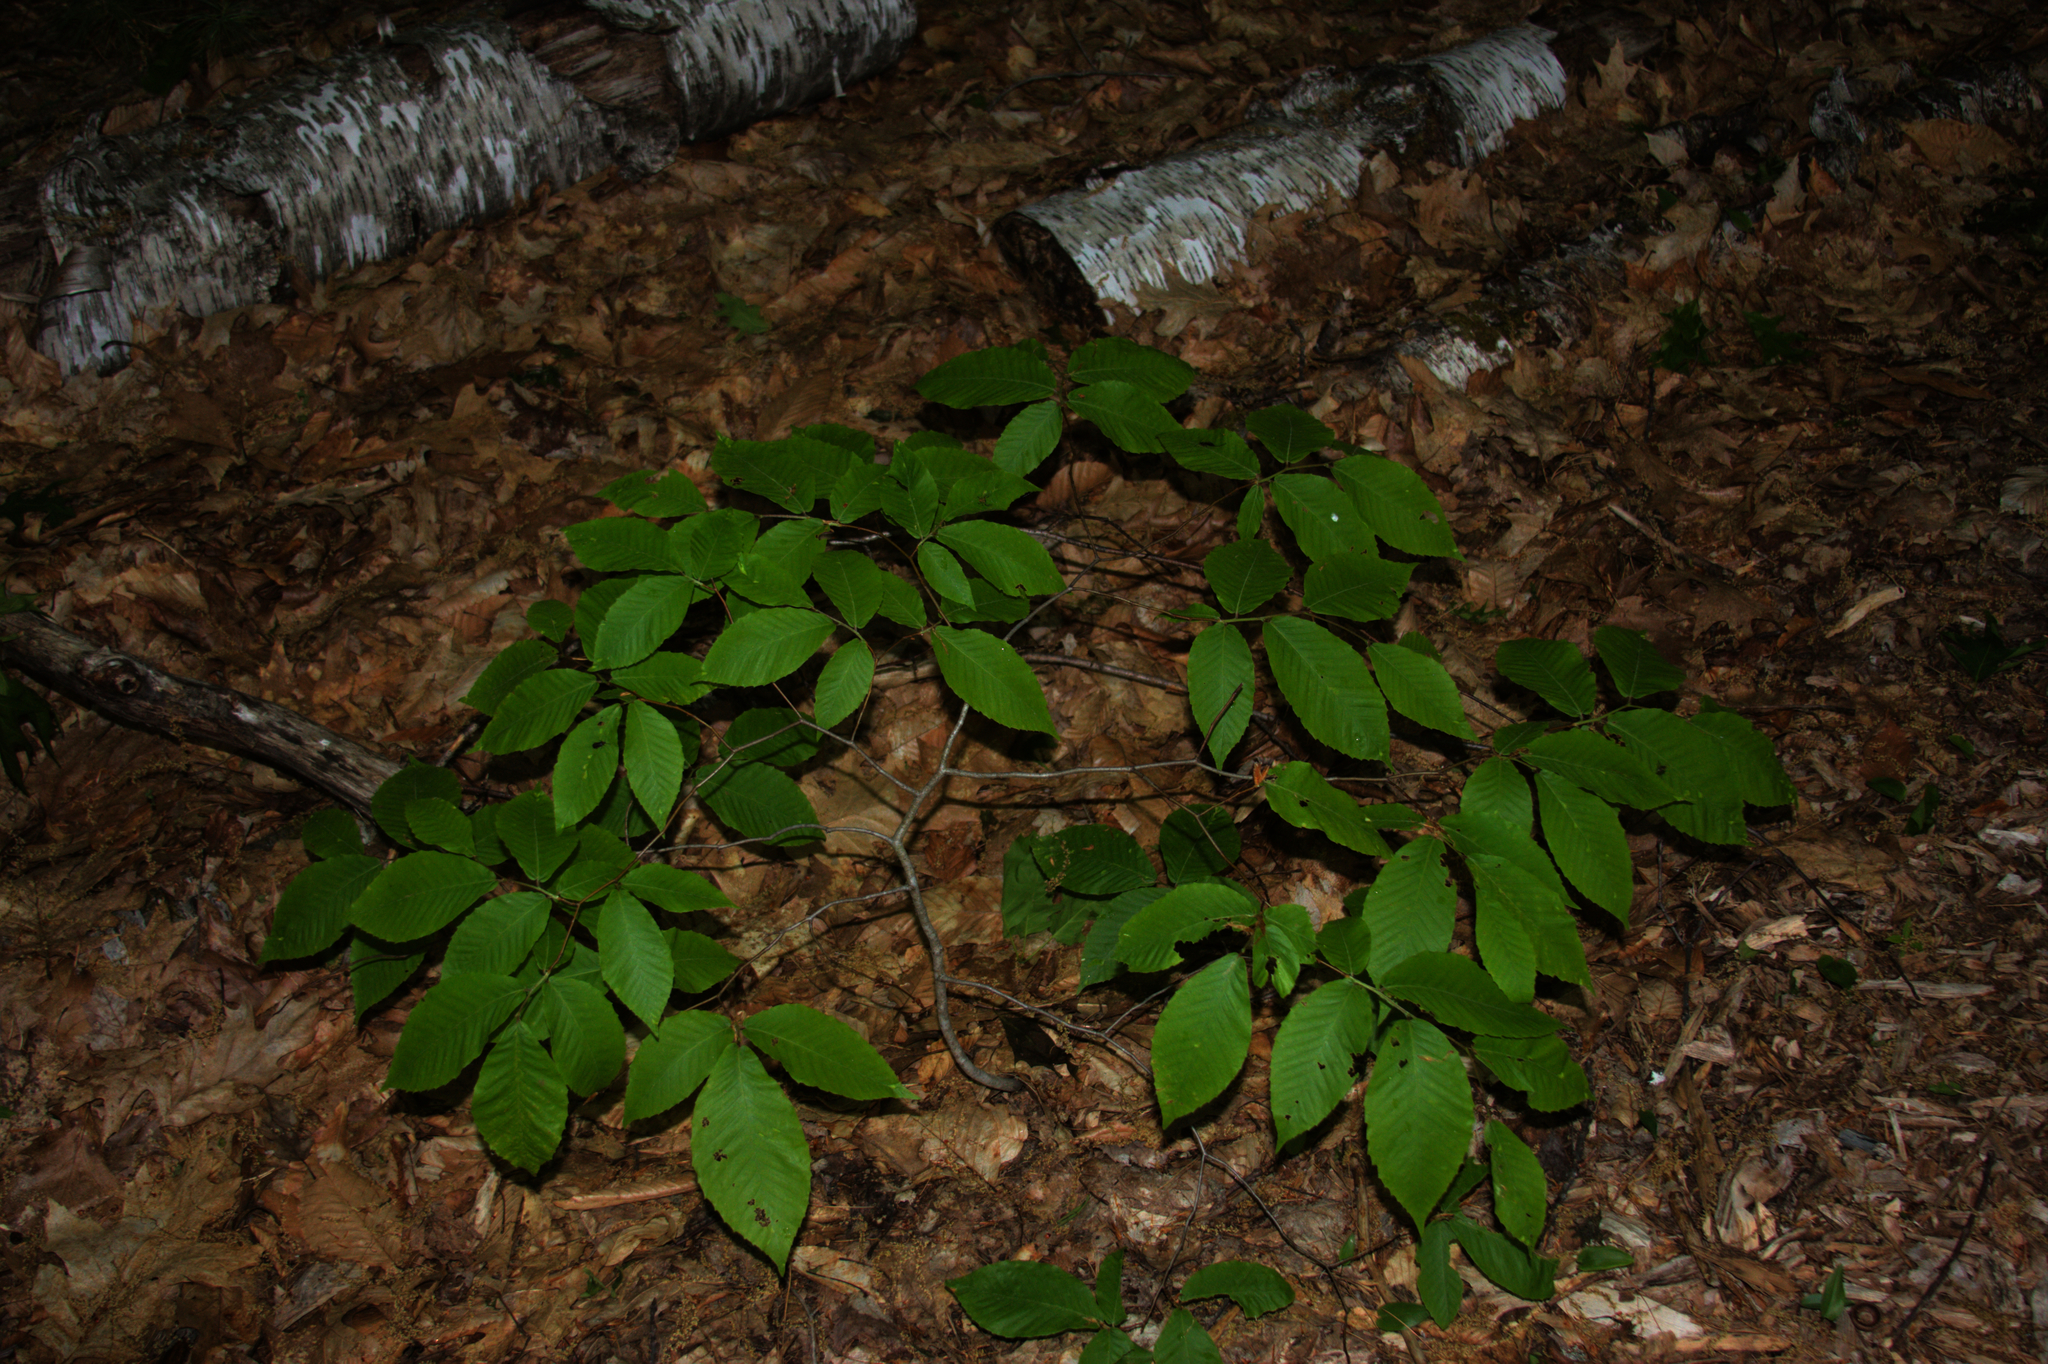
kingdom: Plantae
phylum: Tracheophyta
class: Magnoliopsida
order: Fagales
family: Fagaceae
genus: Fagus
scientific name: Fagus grandifolia
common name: American beech
